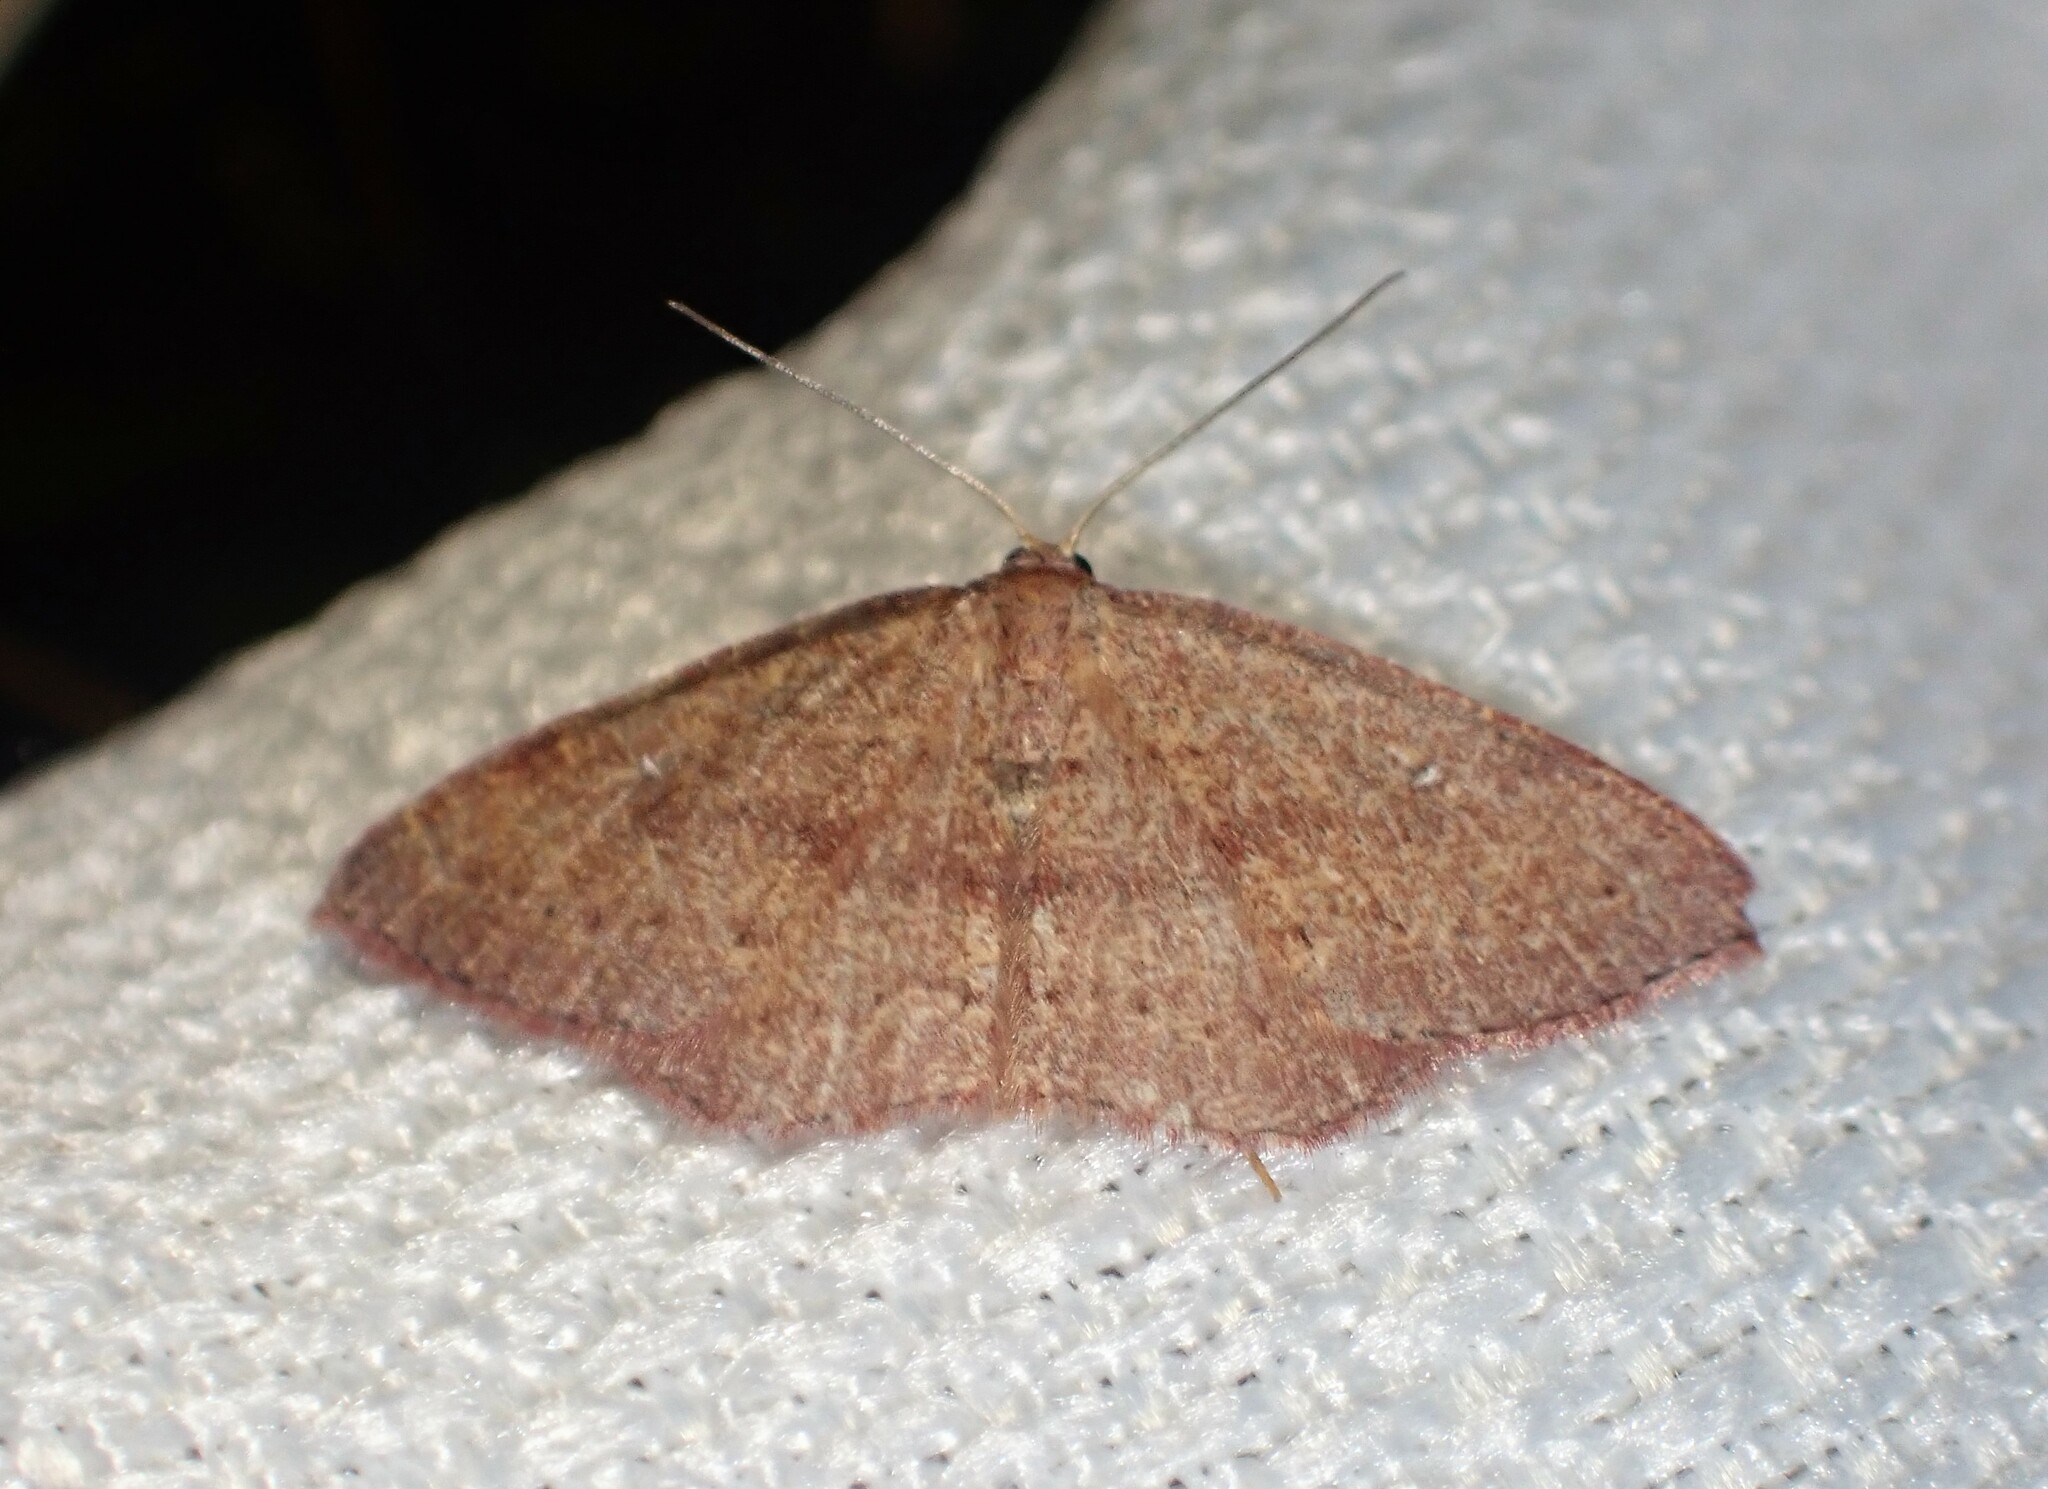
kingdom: Animalia
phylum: Arthropoda
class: Insecta
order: Lepidoptera
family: Geometridae
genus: Cyclophora
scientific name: Cyclophora azorensis
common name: Geometer moth
